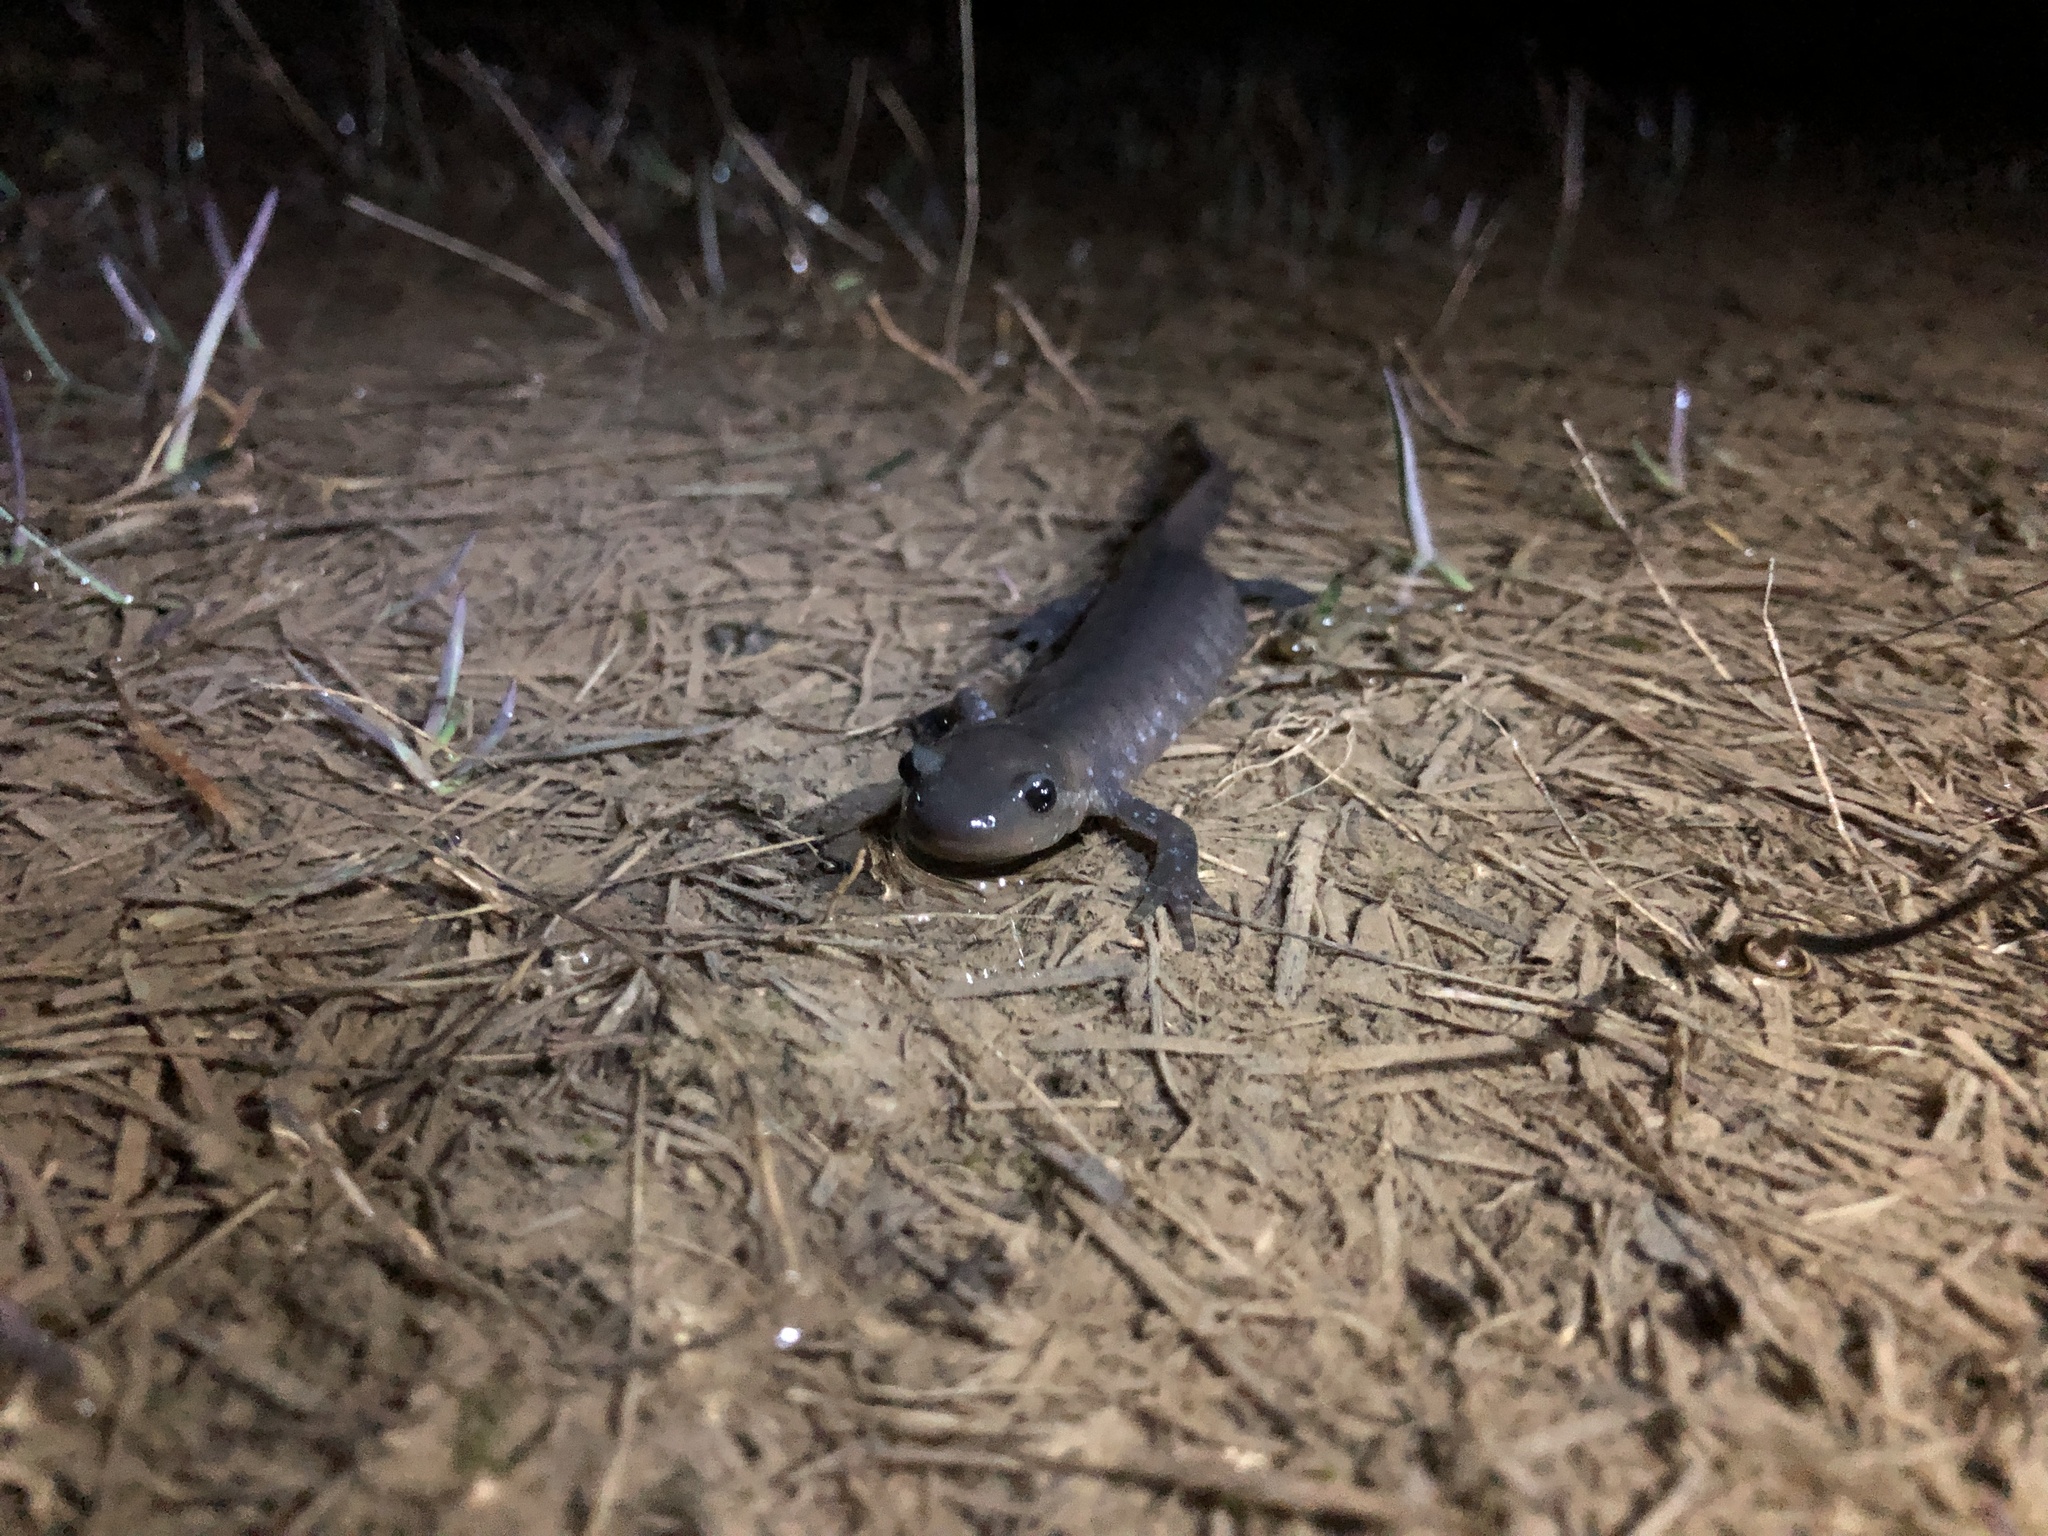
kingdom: Animalia
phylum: Chordata
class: Amphibia
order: Caudata
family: Ambystomatidae
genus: Ambystoma
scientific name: Ambystoma jeffersonianum
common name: Jefferson salamander
